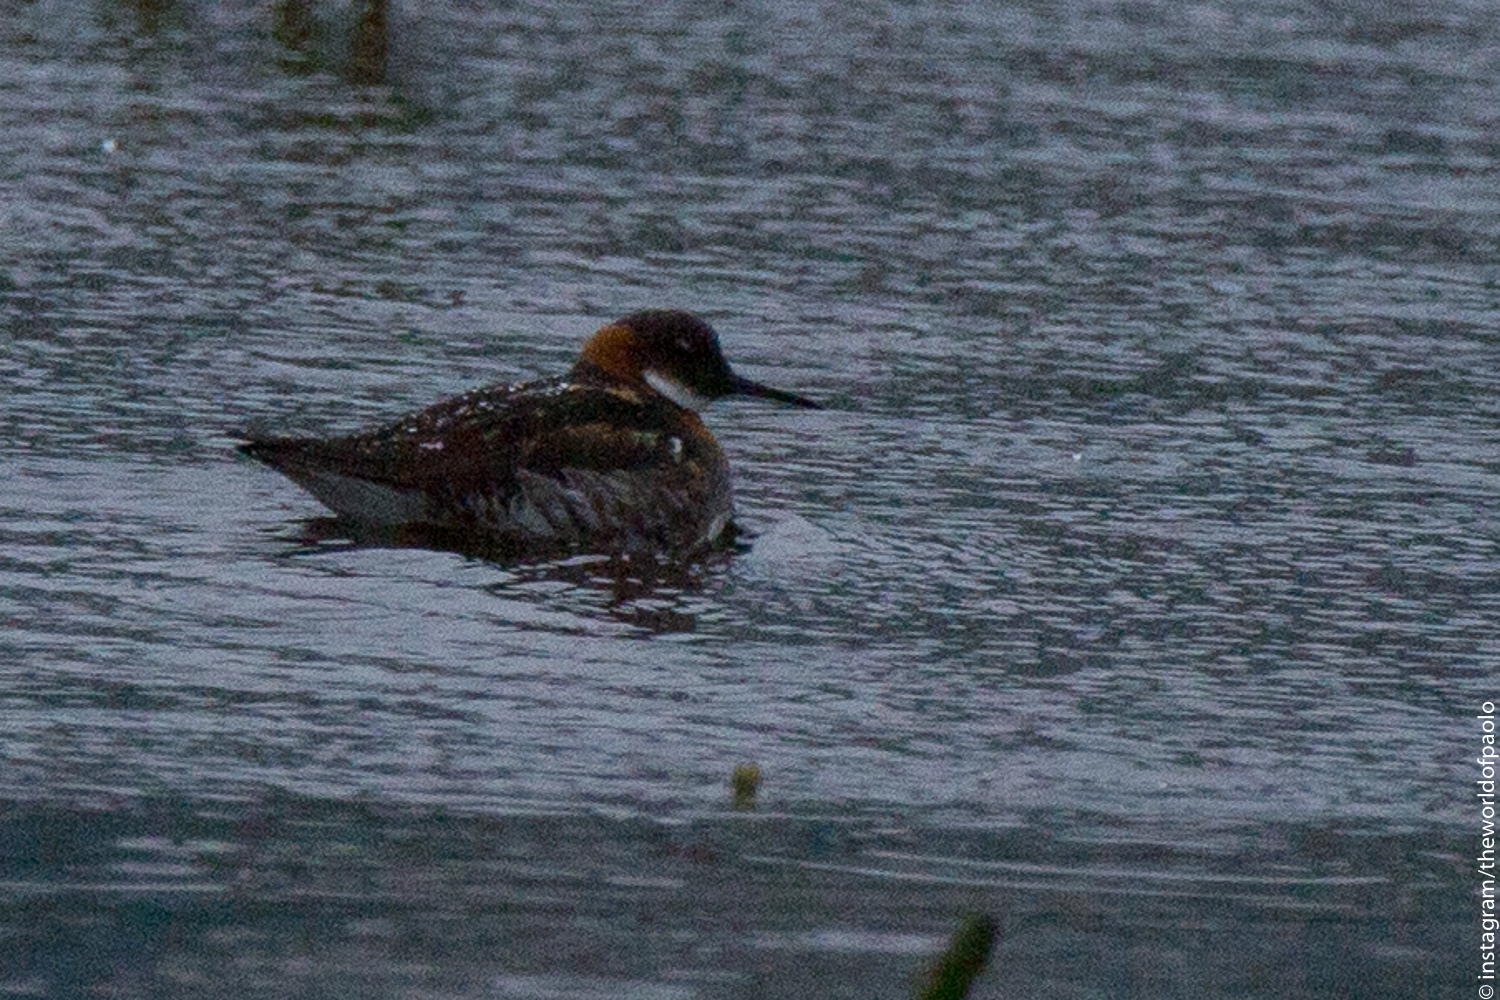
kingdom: Animalia
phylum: Chordata
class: Aves
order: Charadriiformes
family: Scolopacidae
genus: Phalaropus
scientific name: Phalaropus lobatus
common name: Red-necked phalarope
